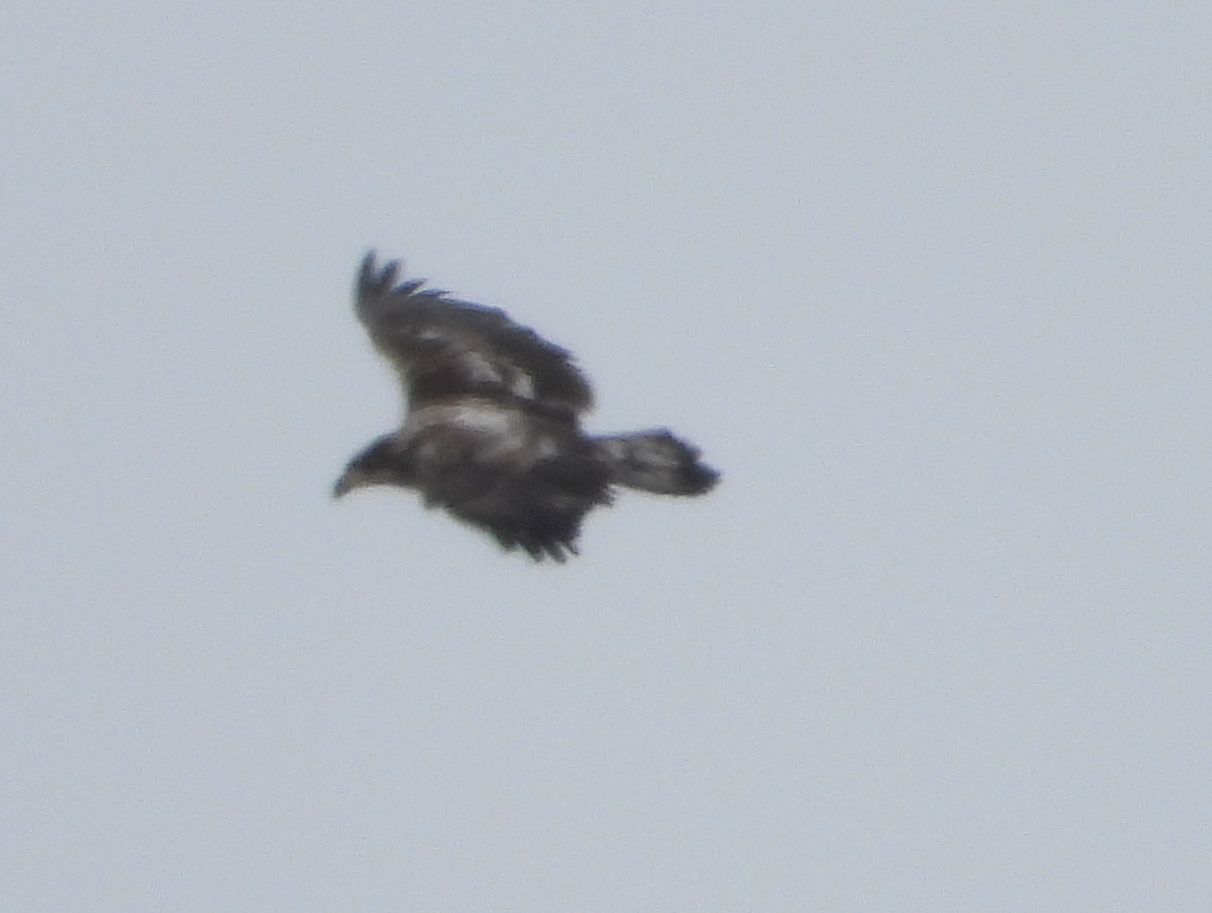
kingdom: Animalia
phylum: Chordata
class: Aves
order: Accipitriformes
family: Accipitridae
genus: Haliaeetus
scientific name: Haliaeetus leucocephalus
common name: Bald eagle
